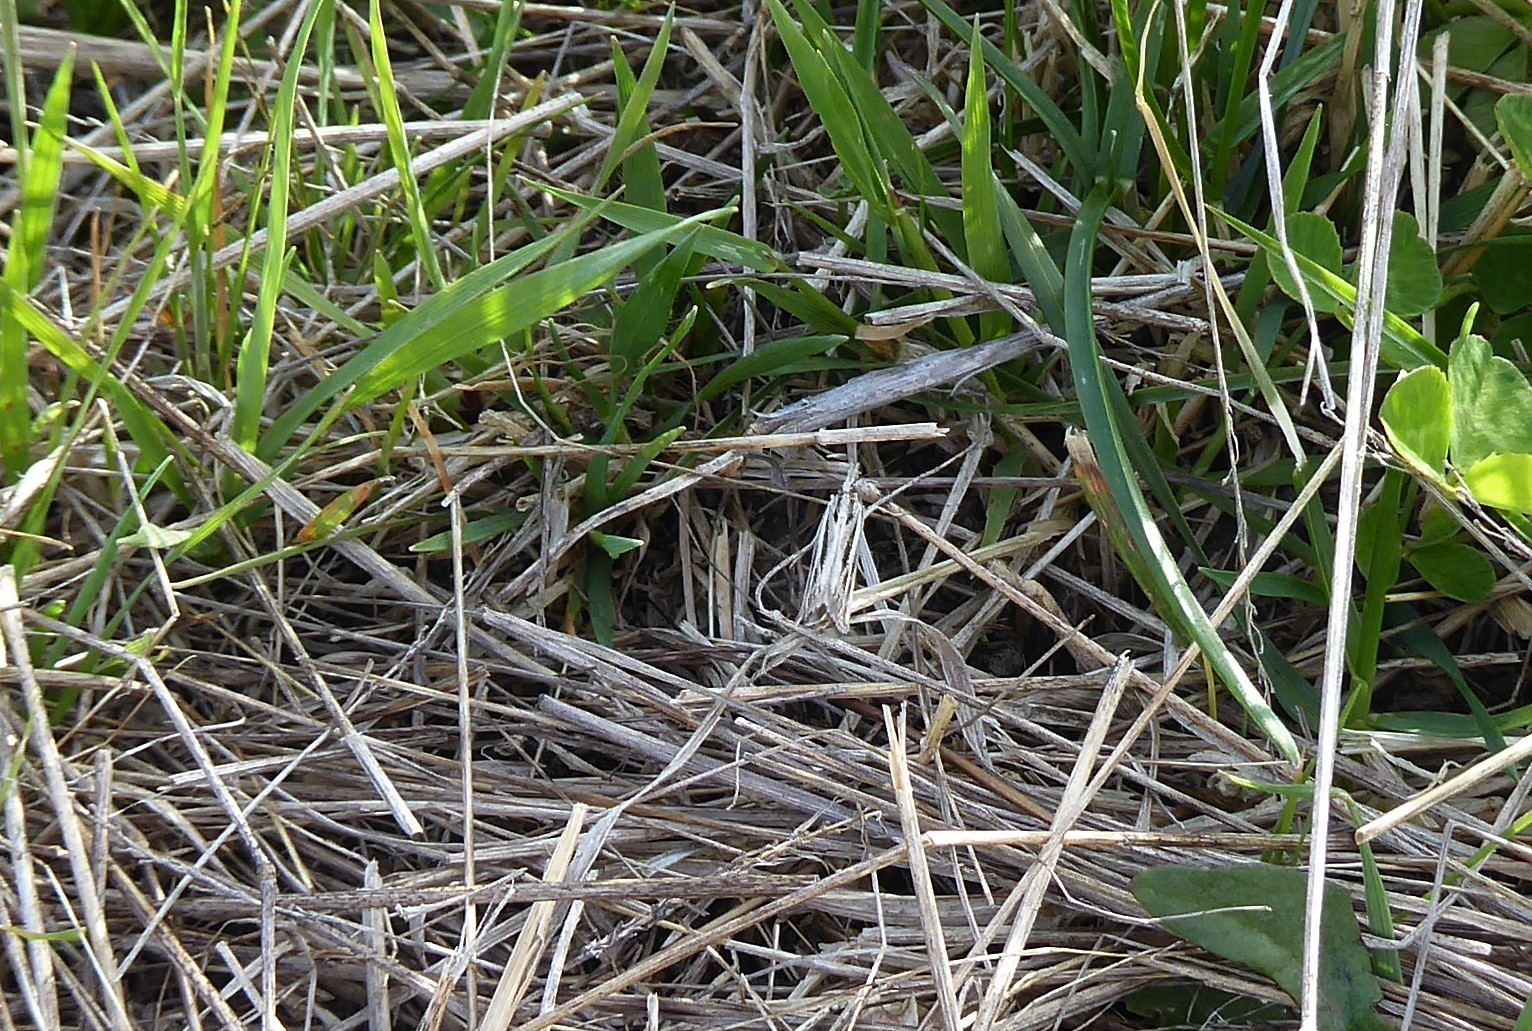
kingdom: Animalia
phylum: Arthropoda
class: Insecta
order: Lepidoptera
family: Crambidae
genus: Orocrambus
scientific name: Orocrambus corruptus
